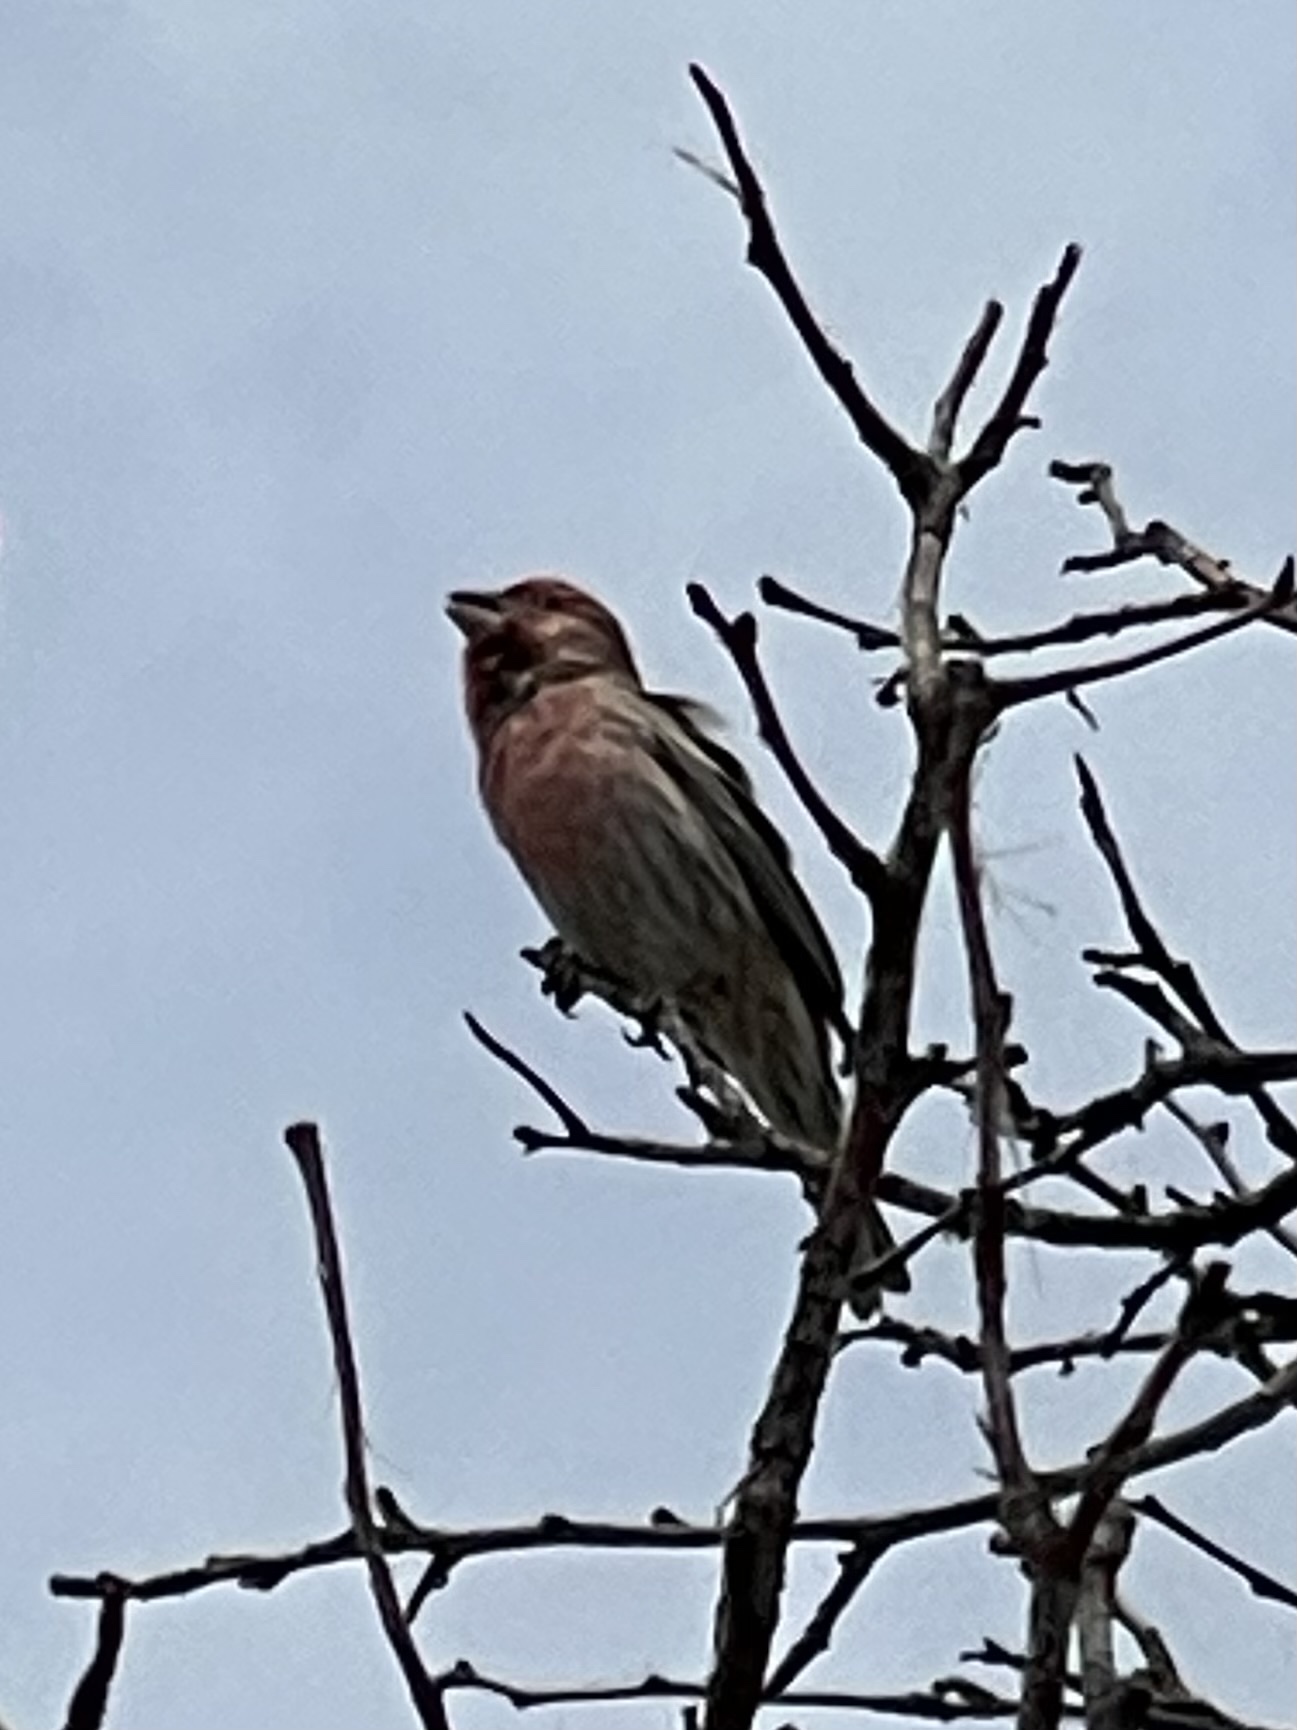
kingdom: Animalia
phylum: Chordata
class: Aves
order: Passeriformes
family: Fringillidae
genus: Haemorhous
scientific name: Haemorhous mexicanus
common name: House finch
